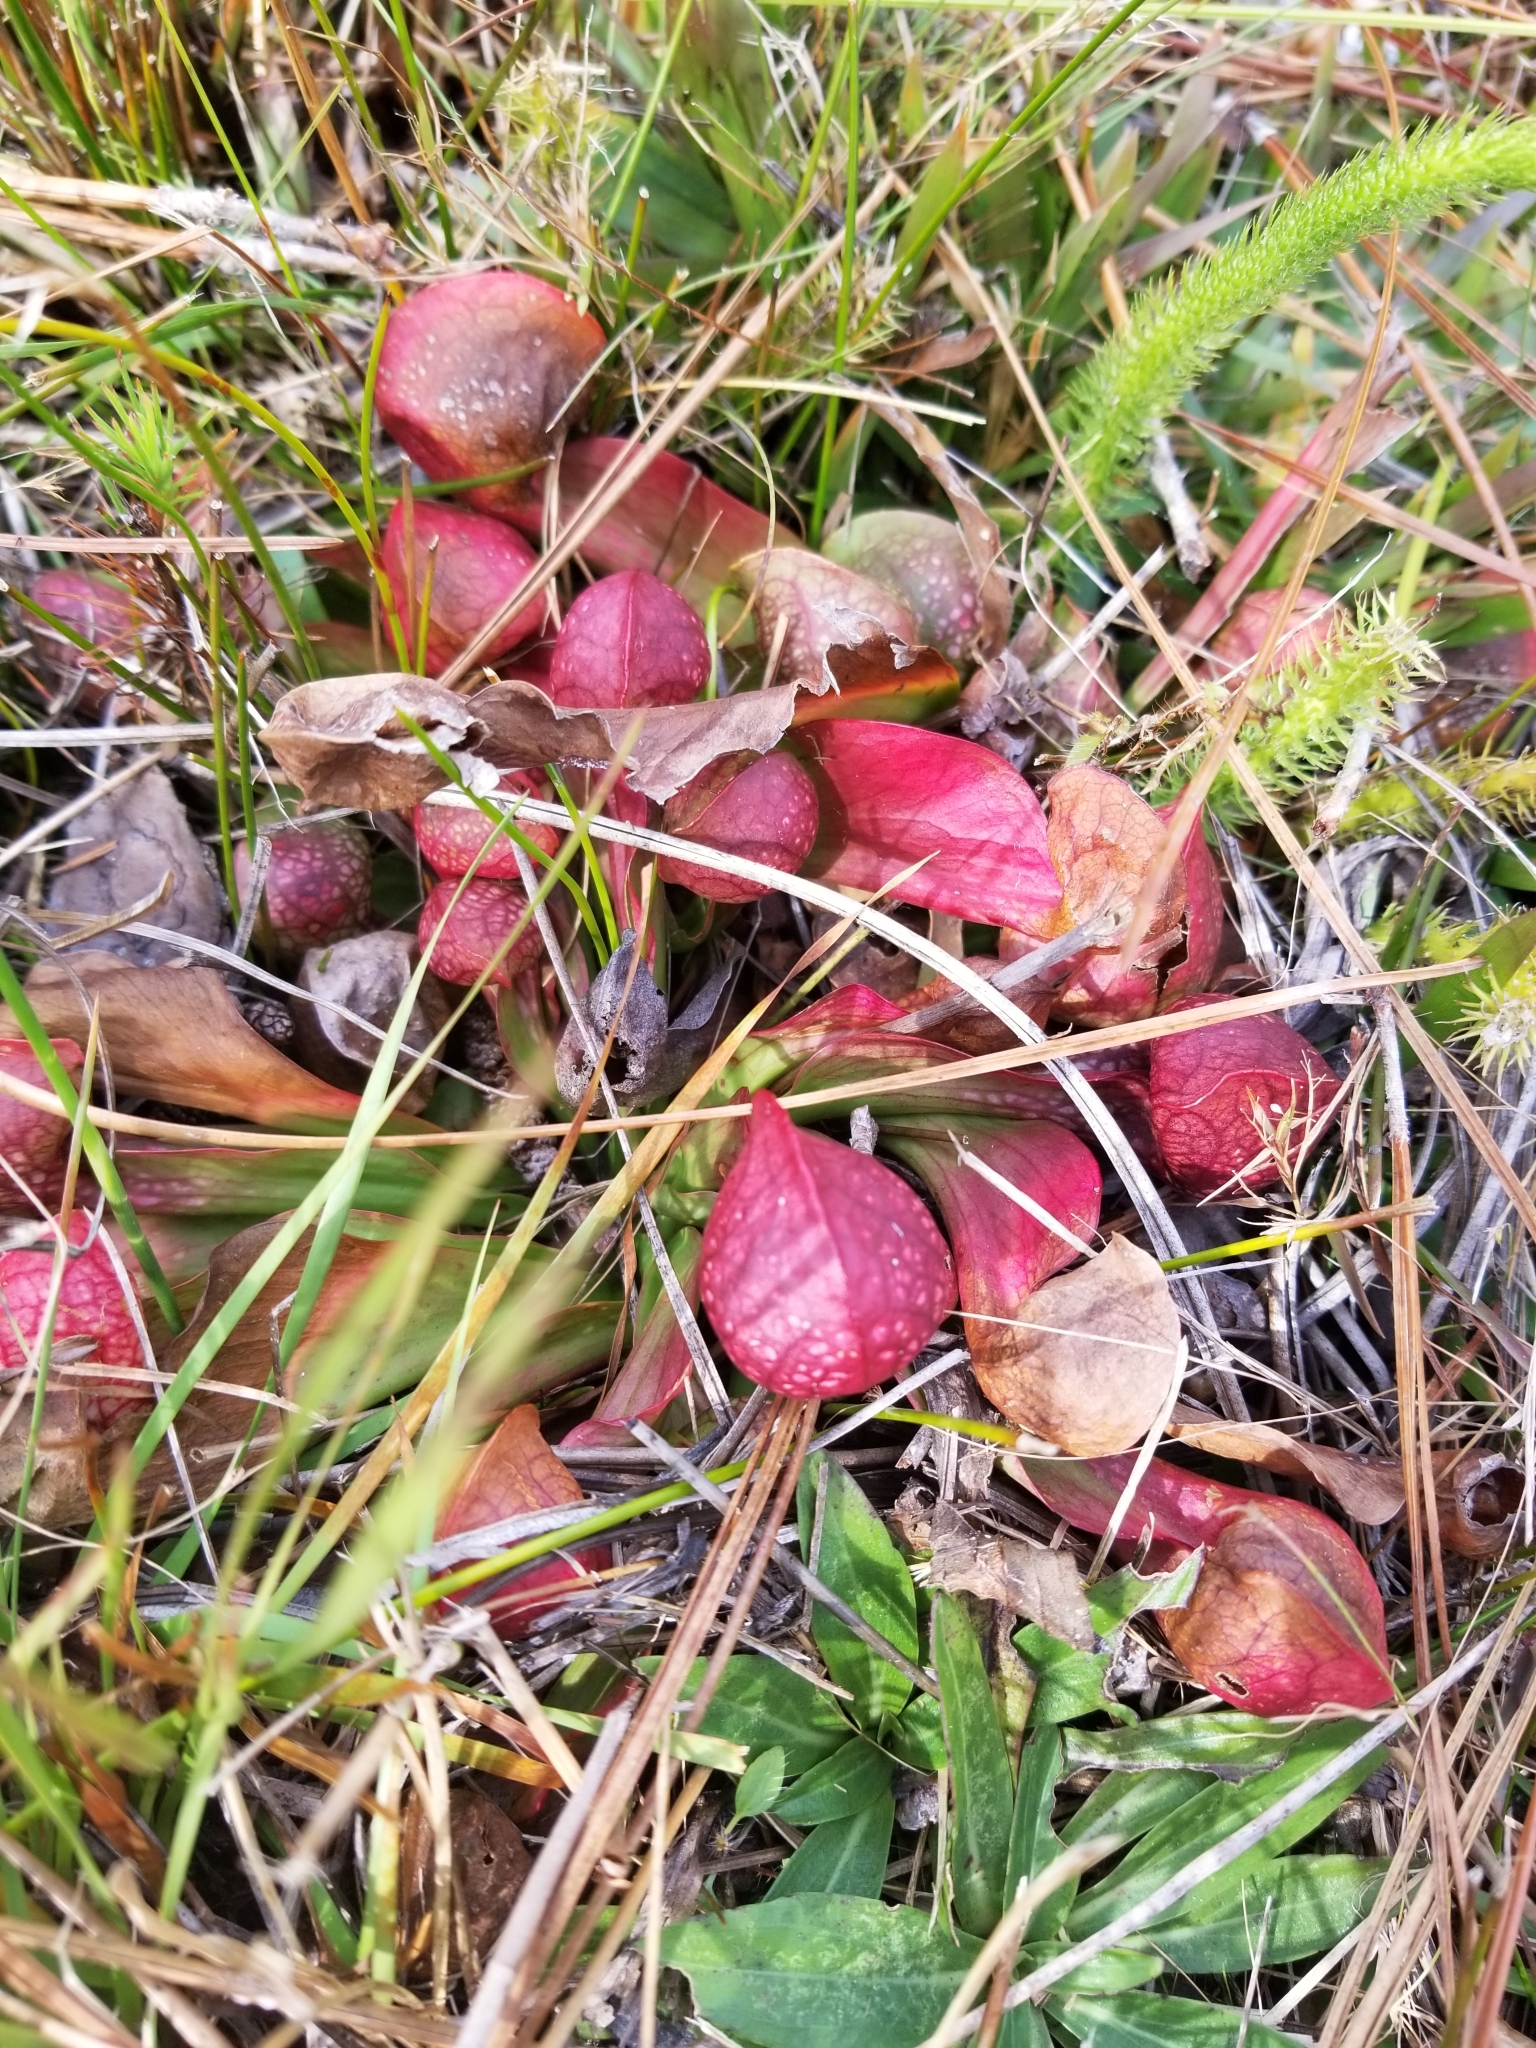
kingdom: Plantae
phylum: Tracheophyta
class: Magnoliopsida
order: Ericales
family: Sarraceniaceae
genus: Sarracenia
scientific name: Sarracenia psittacina
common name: Parrot pitcherplant
